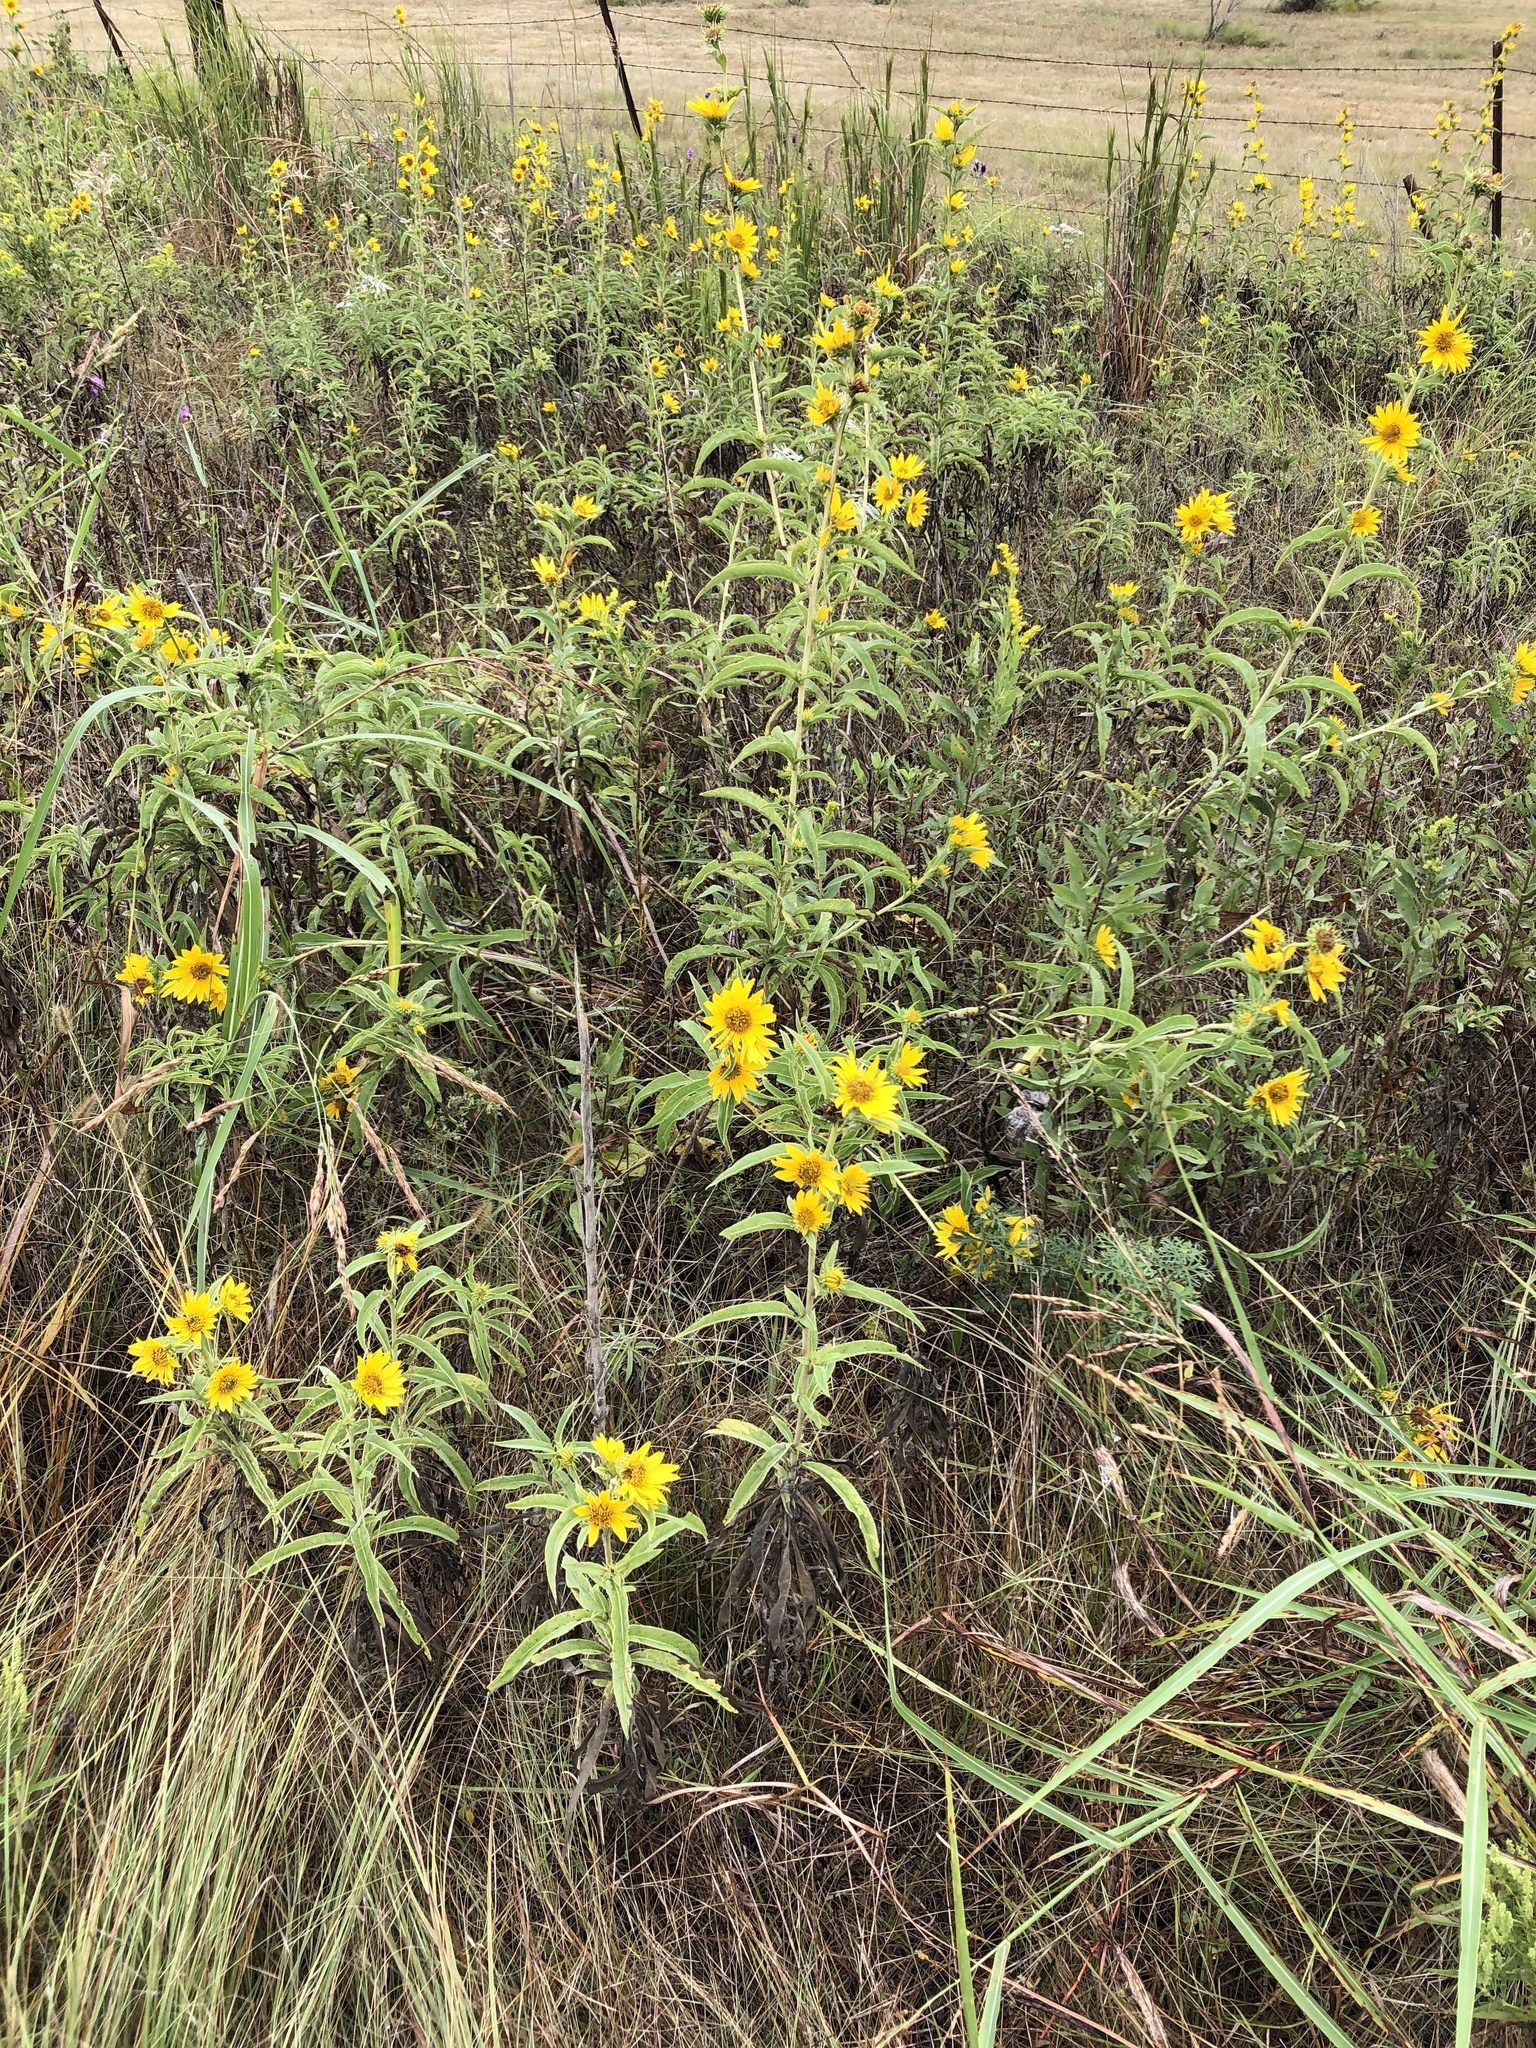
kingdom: Plantae
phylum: Tracheophyta
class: Magnoliopsida
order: Asterales
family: Asteraceae
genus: Helianthus
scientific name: Helianthus maximiliani
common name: Maximilian's sunflower
